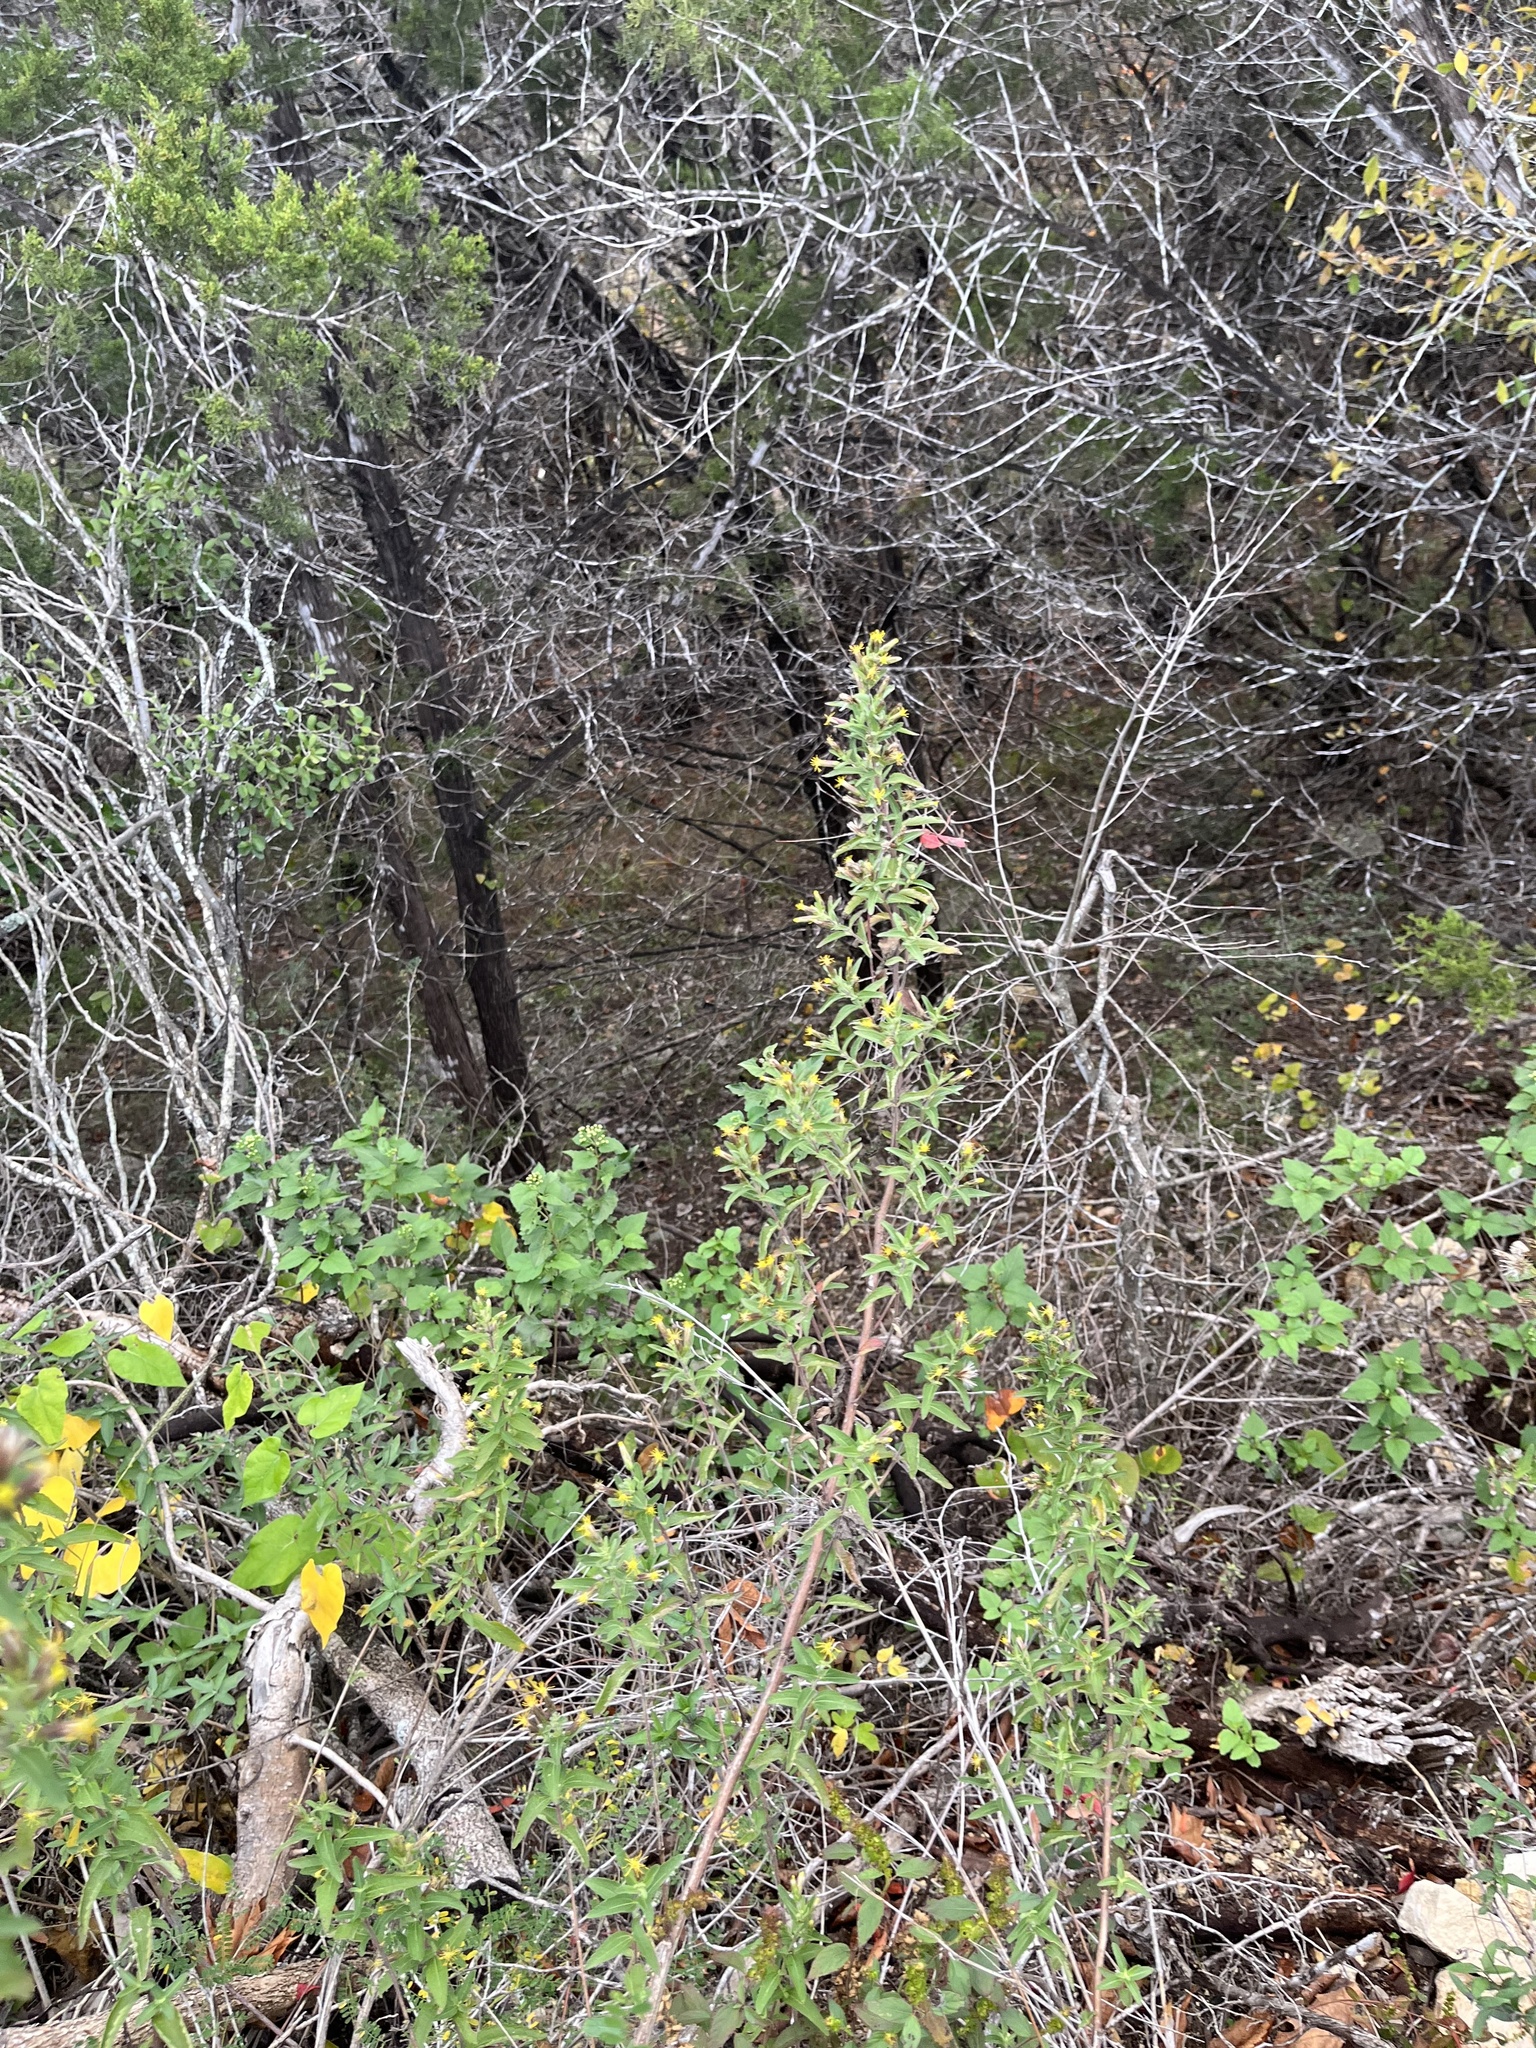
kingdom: Plantae
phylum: Tracheophyta
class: Magnoliopsida
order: Asterales
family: Asteraceae
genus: Brickellia
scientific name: Brickellia cylindracea
